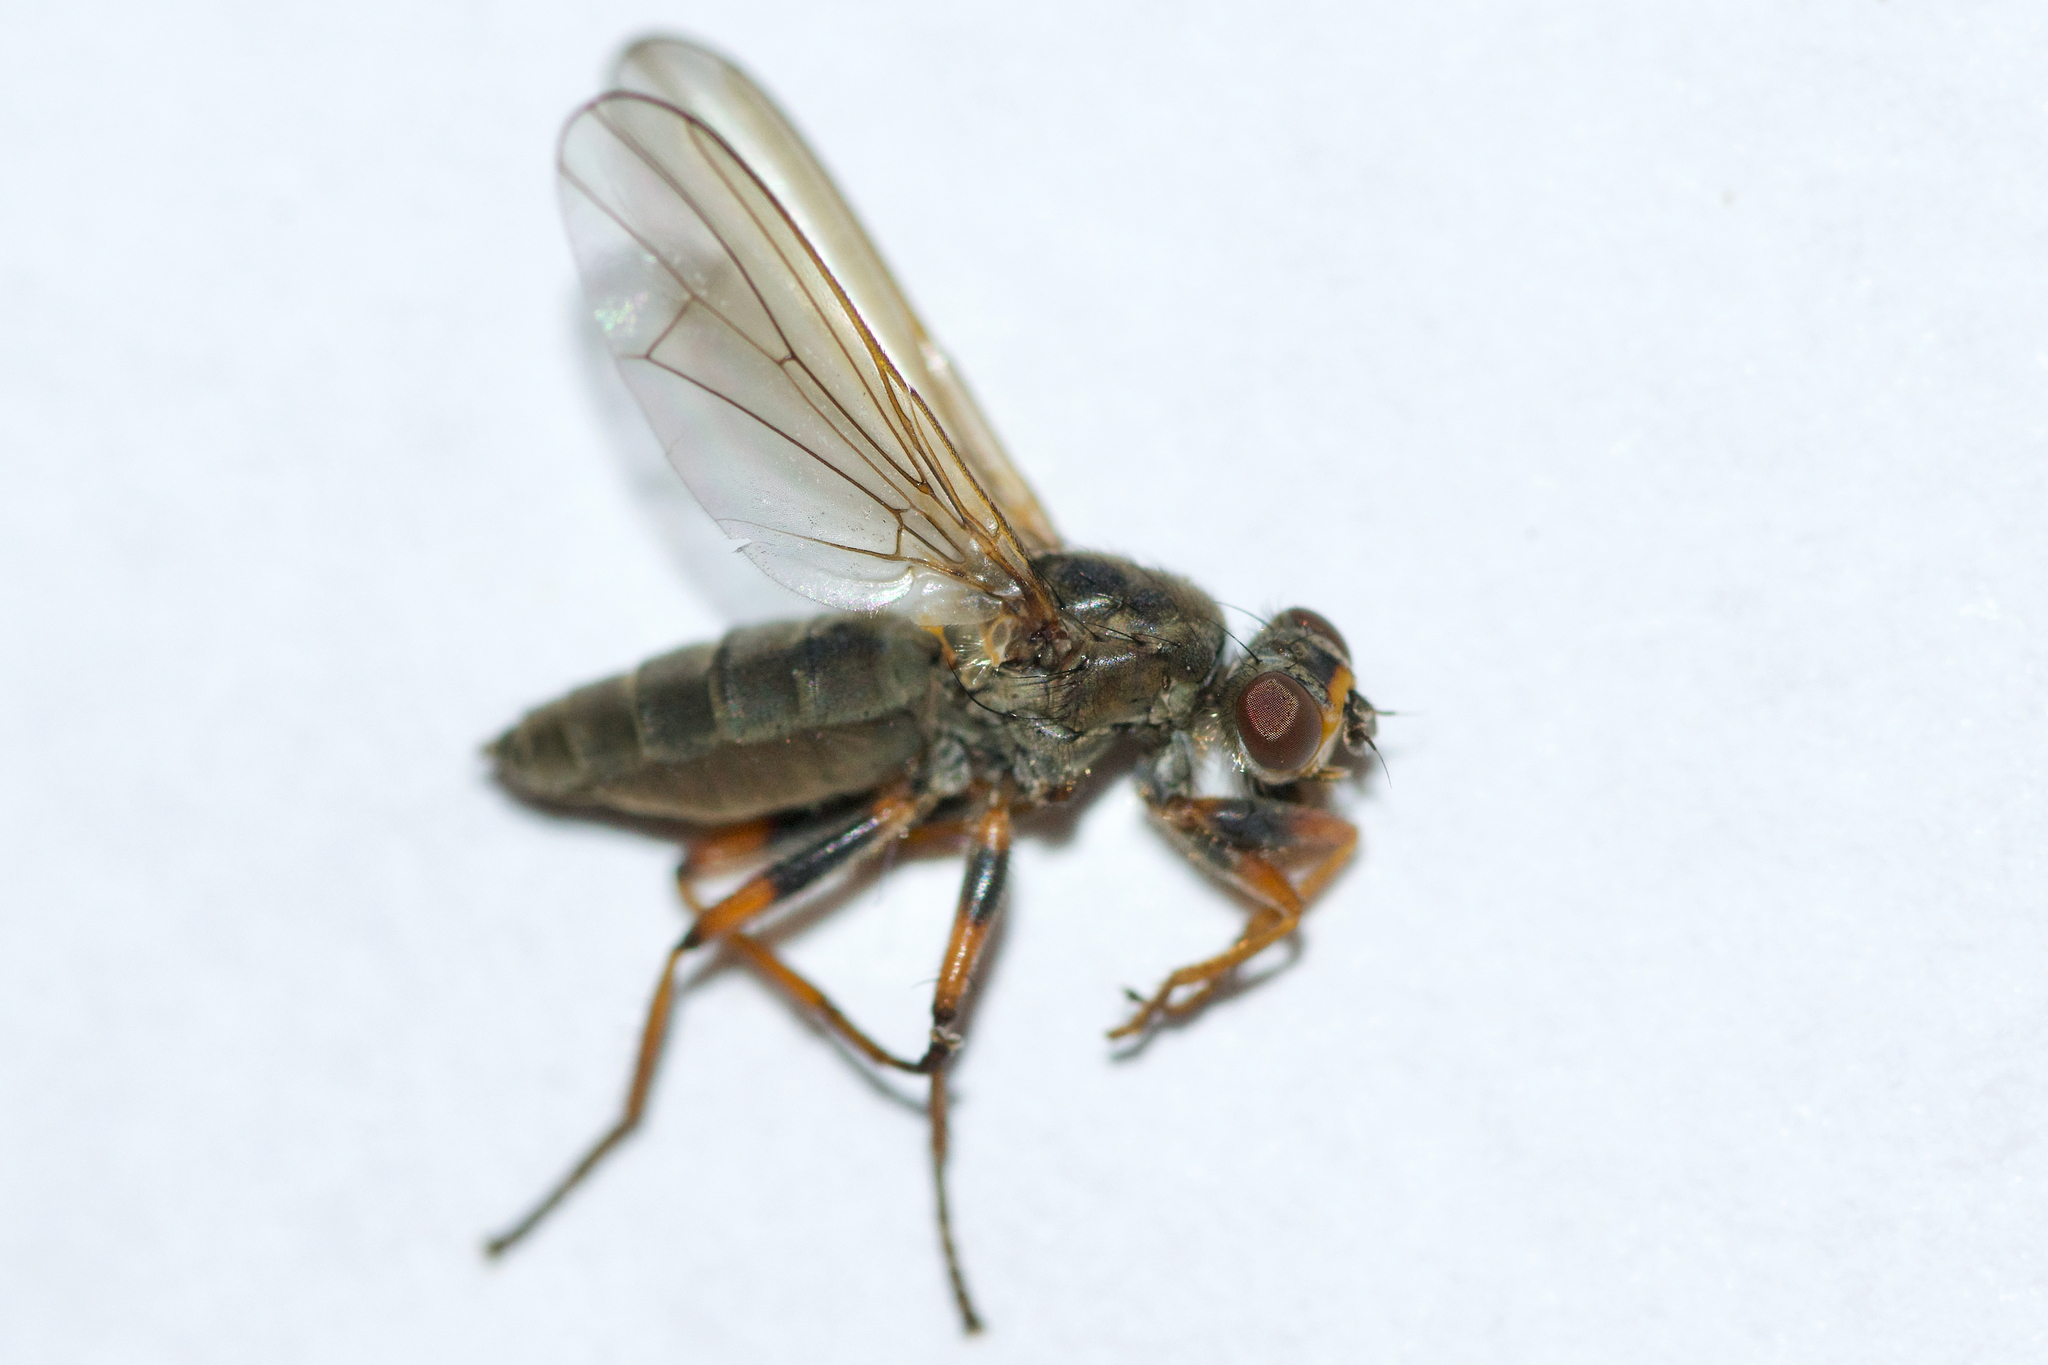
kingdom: Animalia
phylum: Arthropoda
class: Insecta
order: Diptera
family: Scathophagidae
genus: Spaziphora
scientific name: Spaziphora cincta
